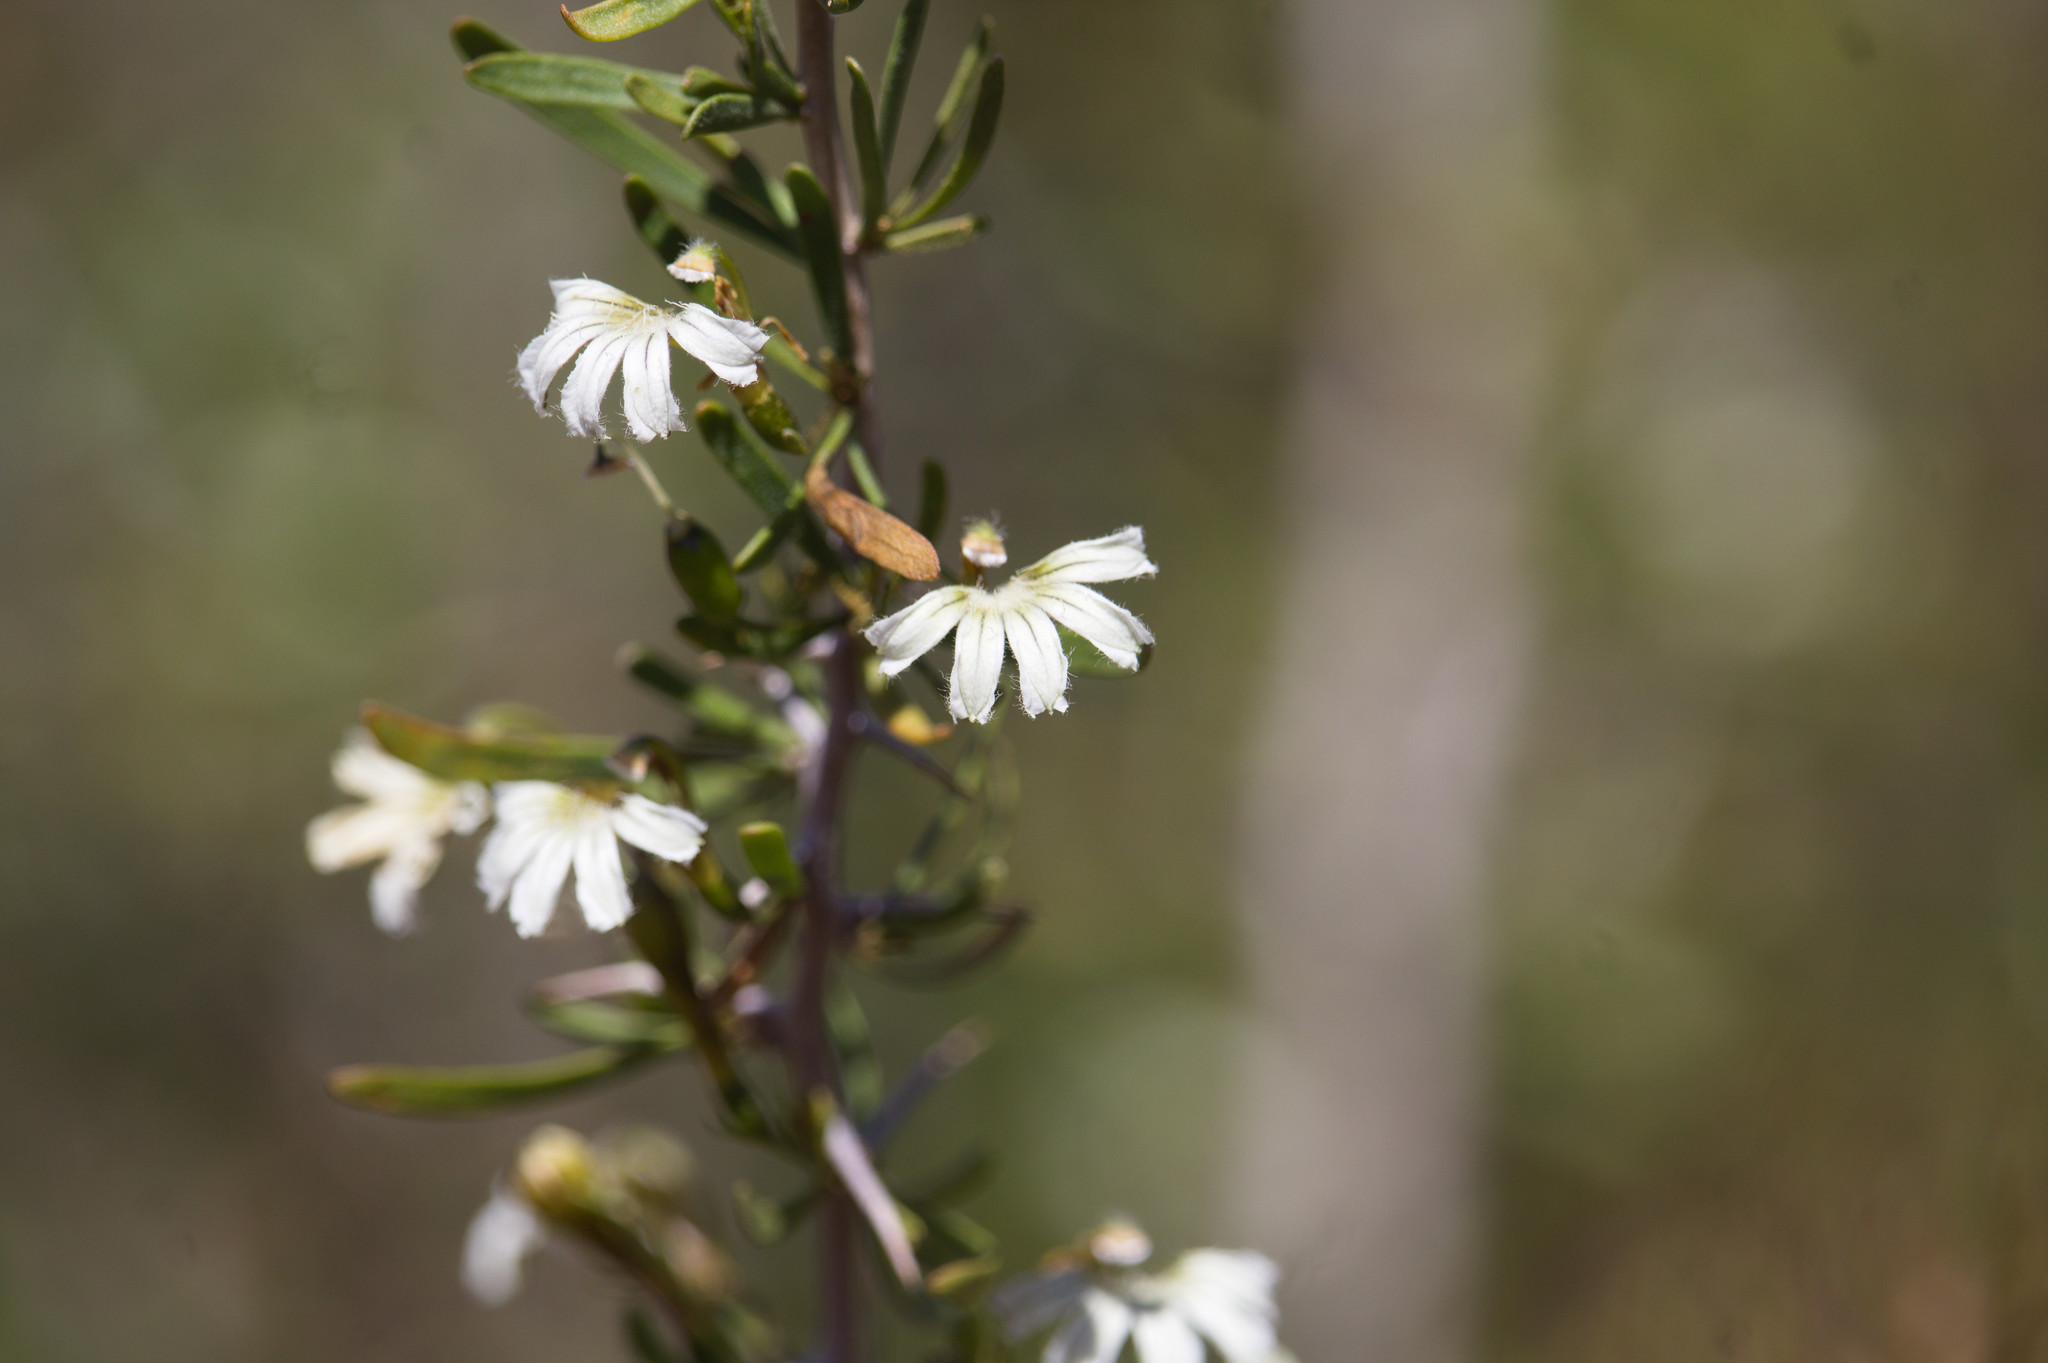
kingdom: Plantae
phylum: Tracheophyta
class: Magnoliopsida
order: Asterales
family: Goodeniaceae
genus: Scaevola
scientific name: Scaevola spinescens
